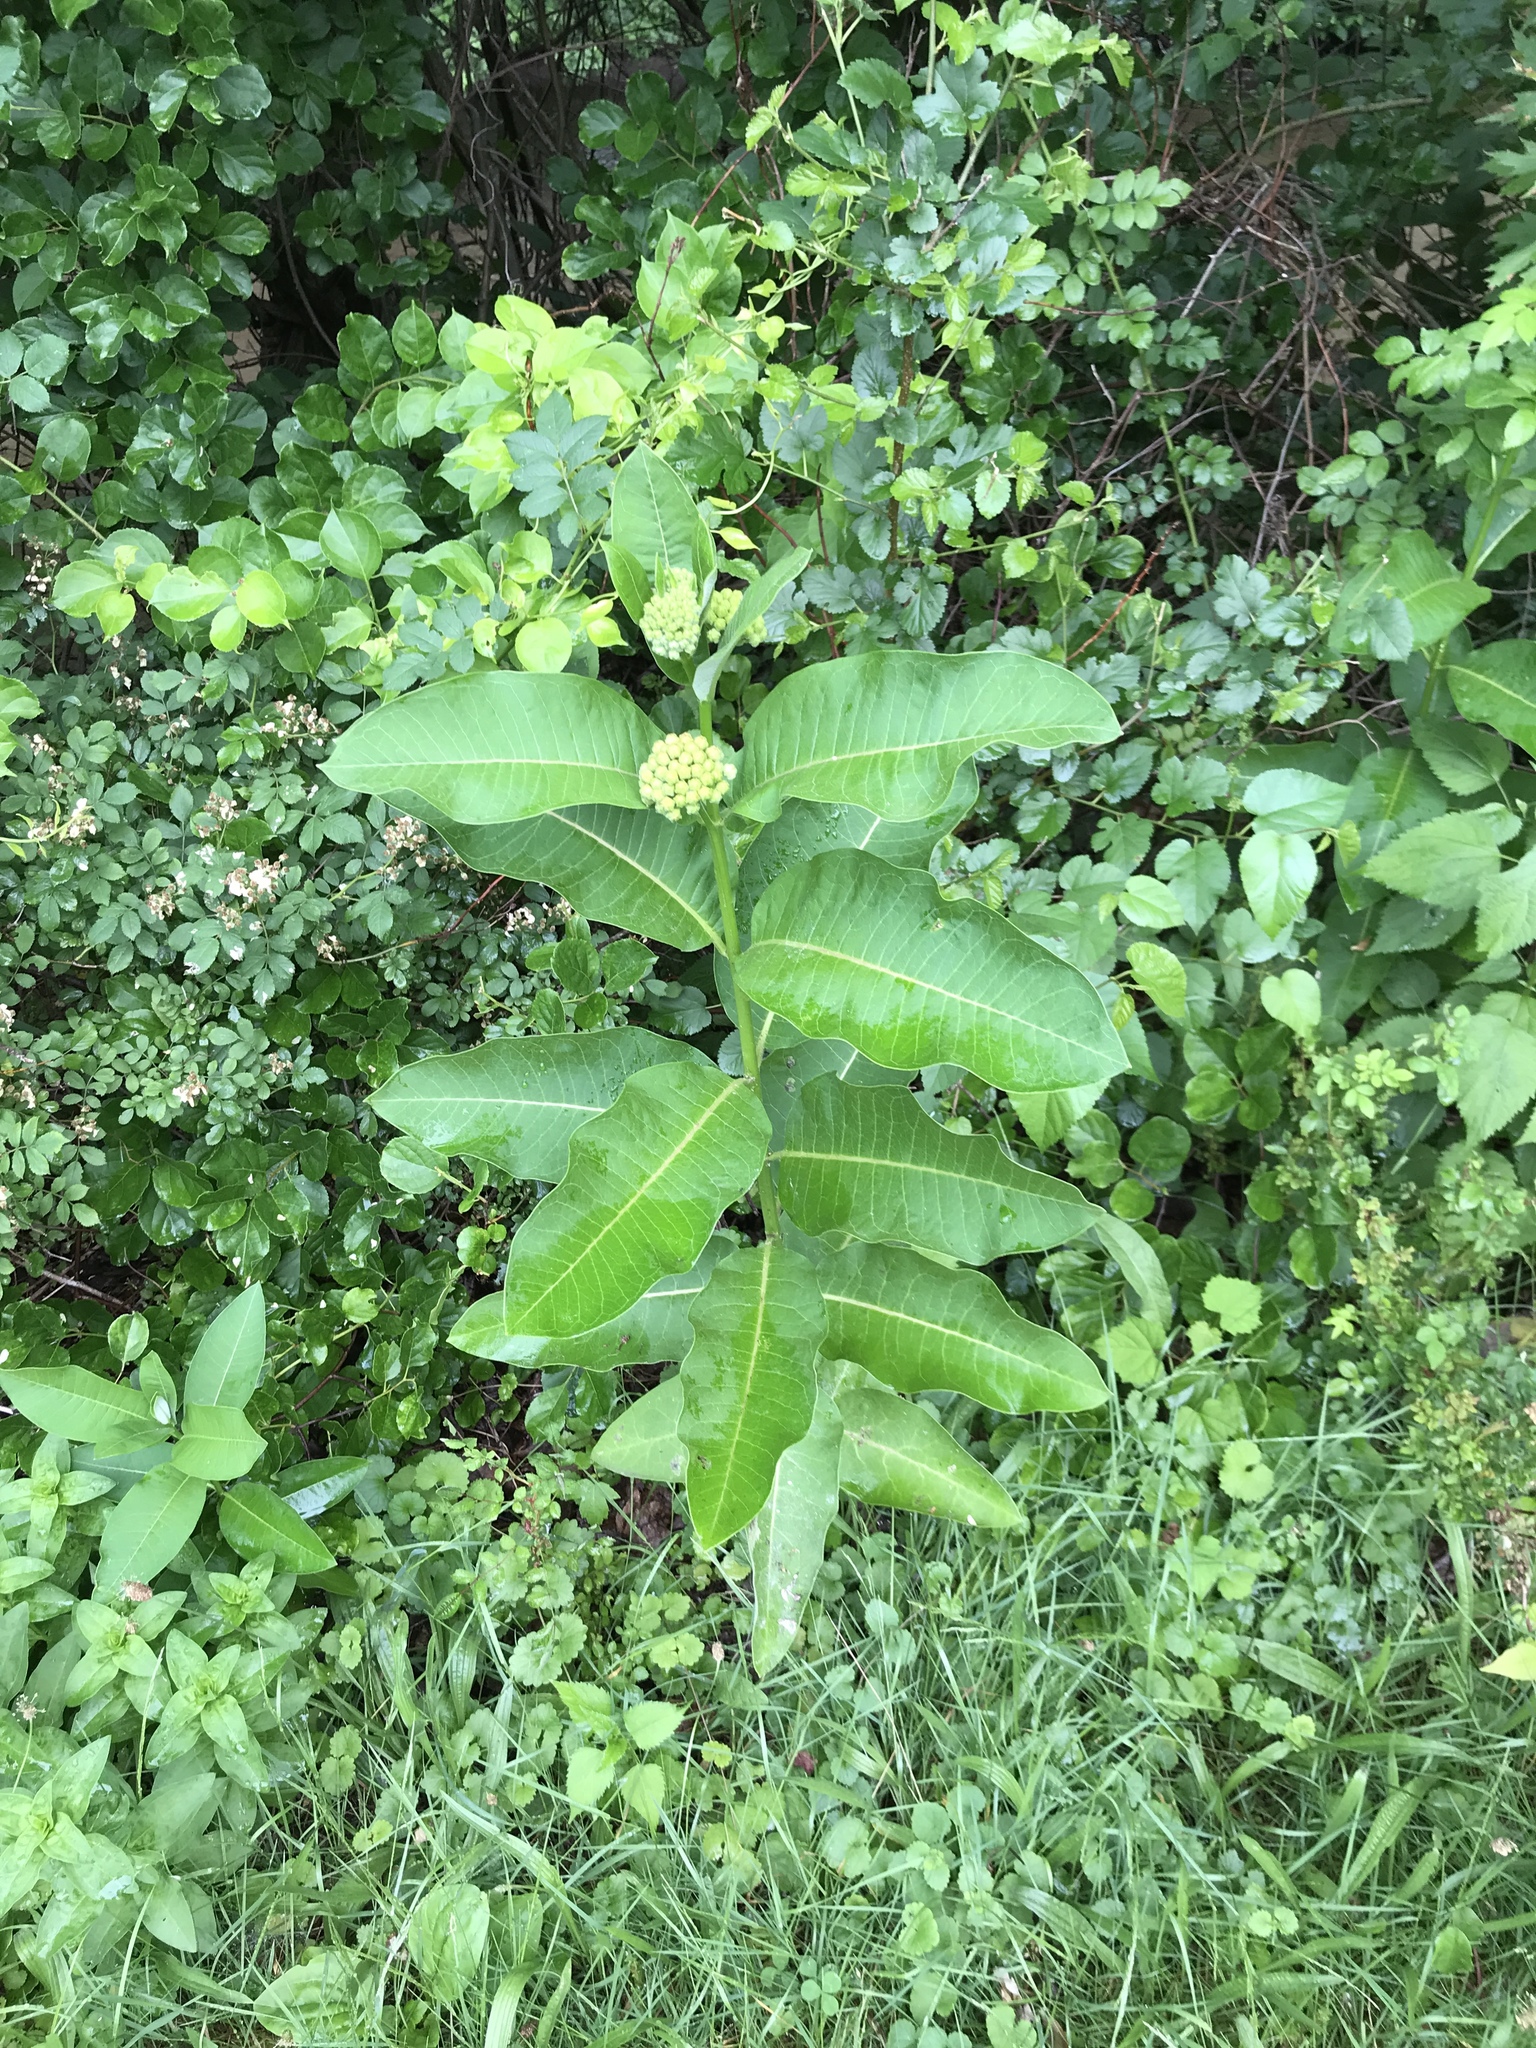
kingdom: Plantae
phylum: Tracheophyta
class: Magnoliopsida
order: Gentianales
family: Apocynaceae
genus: Asclepias
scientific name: Asclepias syriaca
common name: Common milkweed
